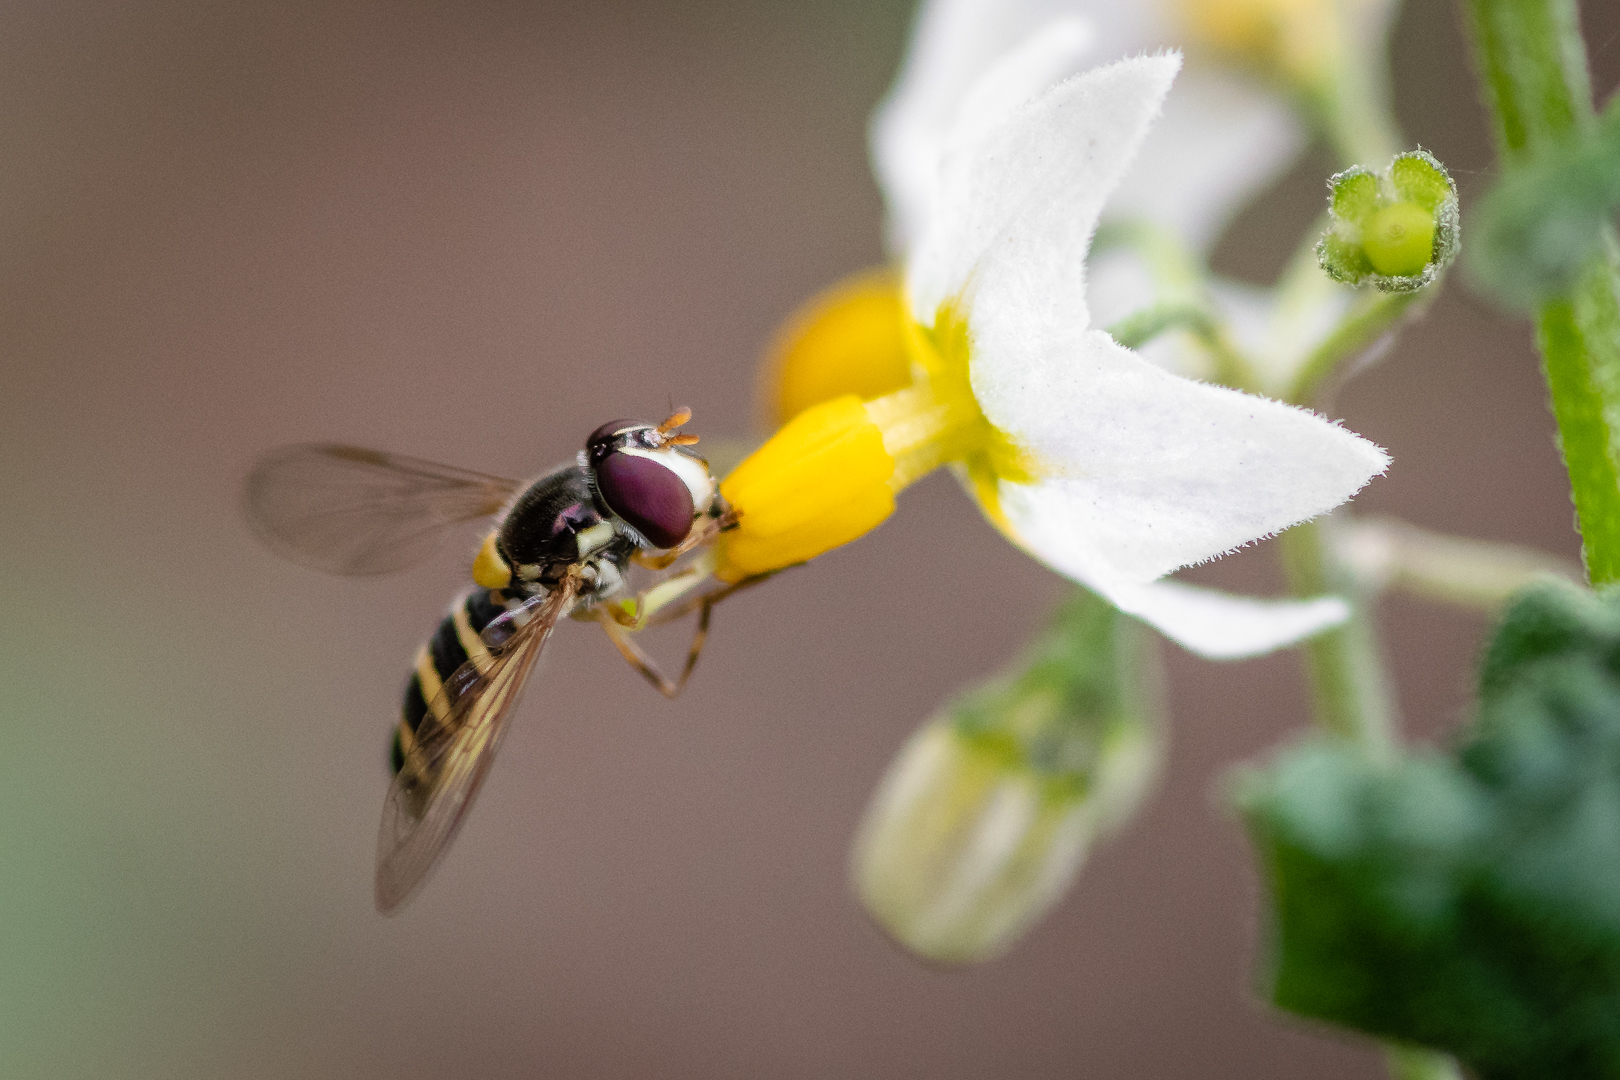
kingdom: Animalia
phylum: Arthropoda
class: Insecta
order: Diptera
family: Syrphidae
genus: Toxomerus
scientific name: Toxomerus calceolatus
